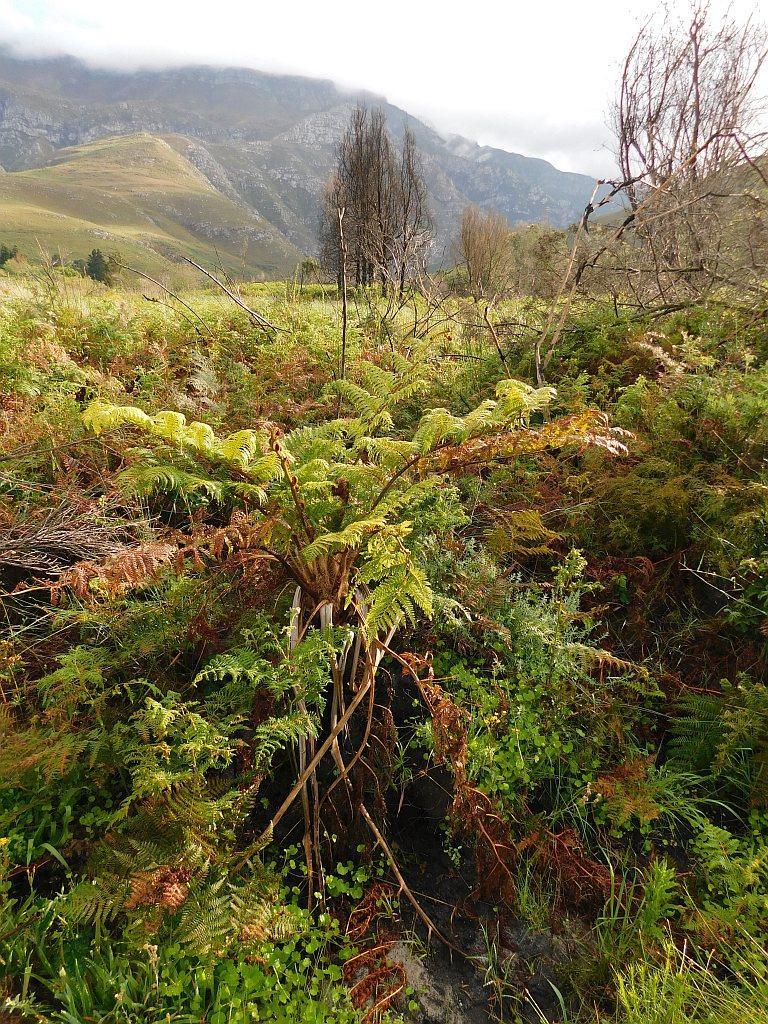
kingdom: Plantae
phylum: Tracheophyta
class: Polypodiopsida
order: Cyatheales
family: Cyatheaceae
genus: Sphaeropteris
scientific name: Sphaeropteris cooperi
